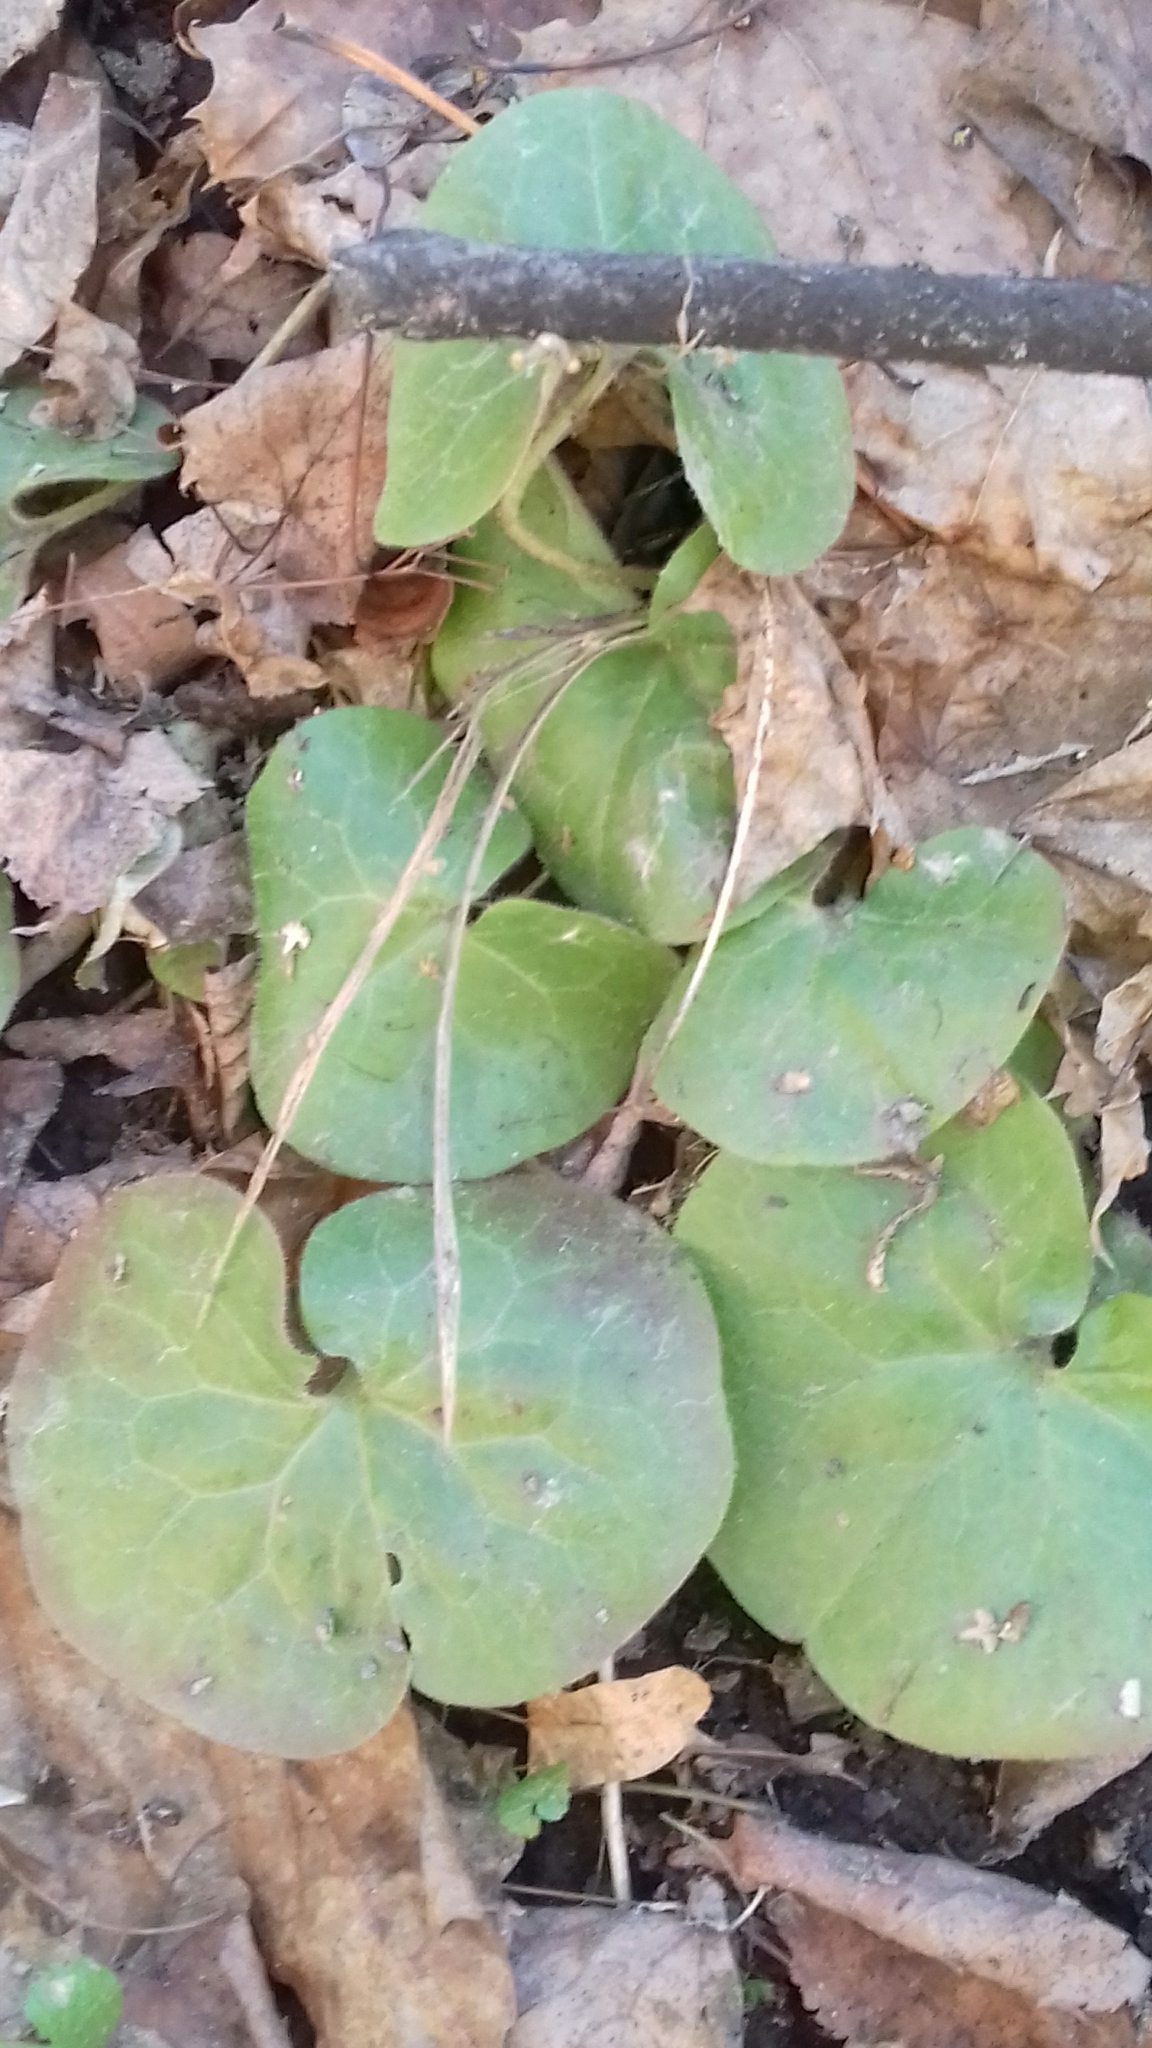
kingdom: Plantae
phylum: Tracheophyta
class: Magnoliopsida
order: Piperales
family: Aristolochiaceae
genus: Asarum
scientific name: Asarum europaeum
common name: Asarabacca
